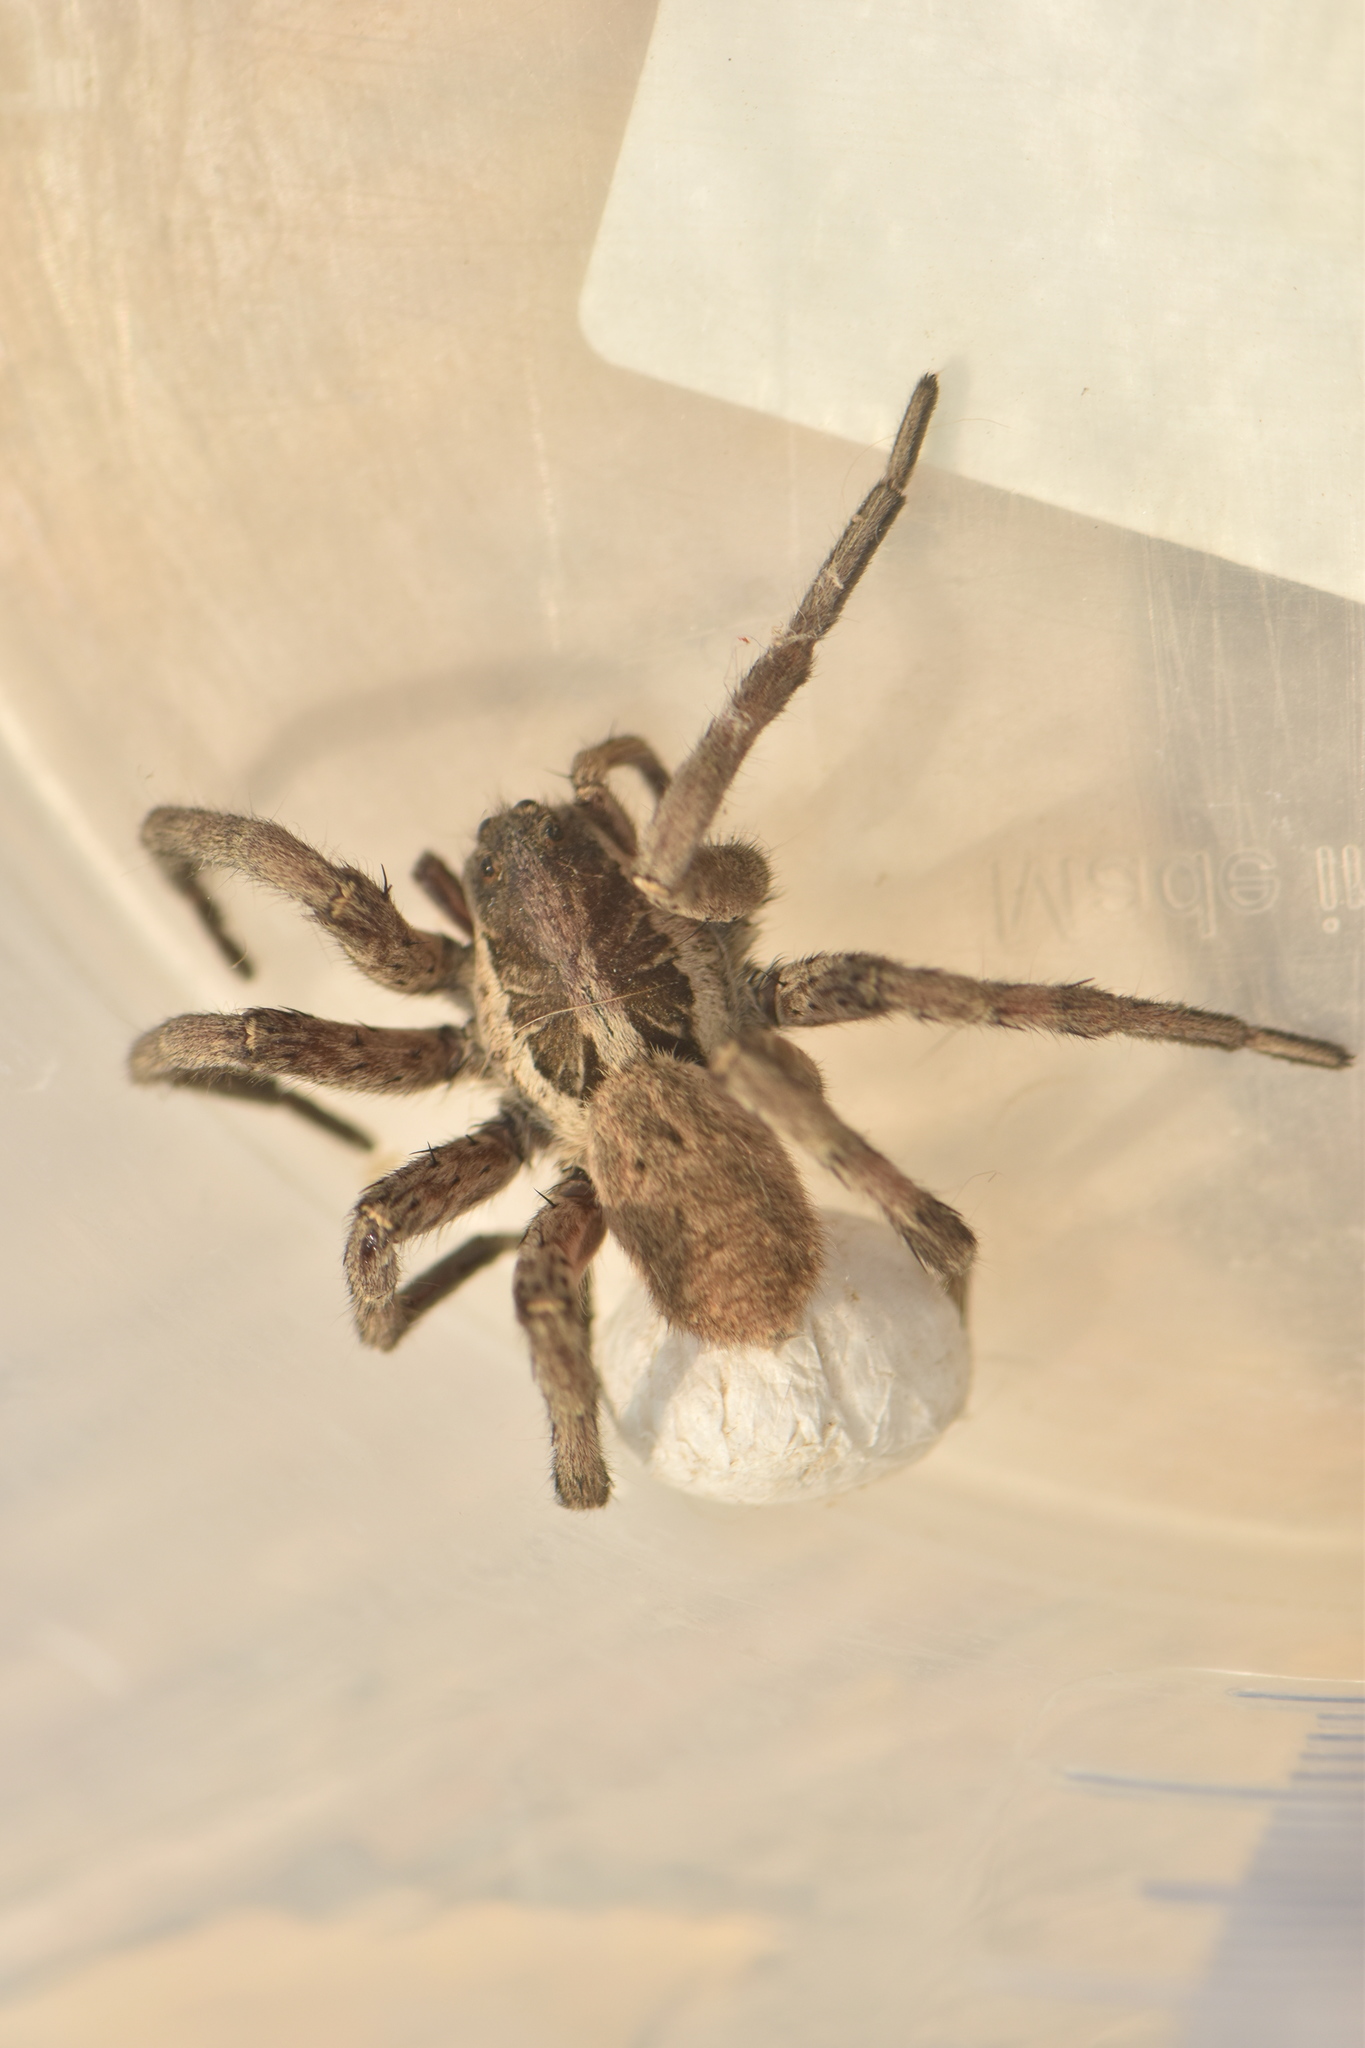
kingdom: Animalia
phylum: Arthropoda
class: Arachnida
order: Araneae
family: Lycosidae
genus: Hogna
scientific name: Hogna radiata
